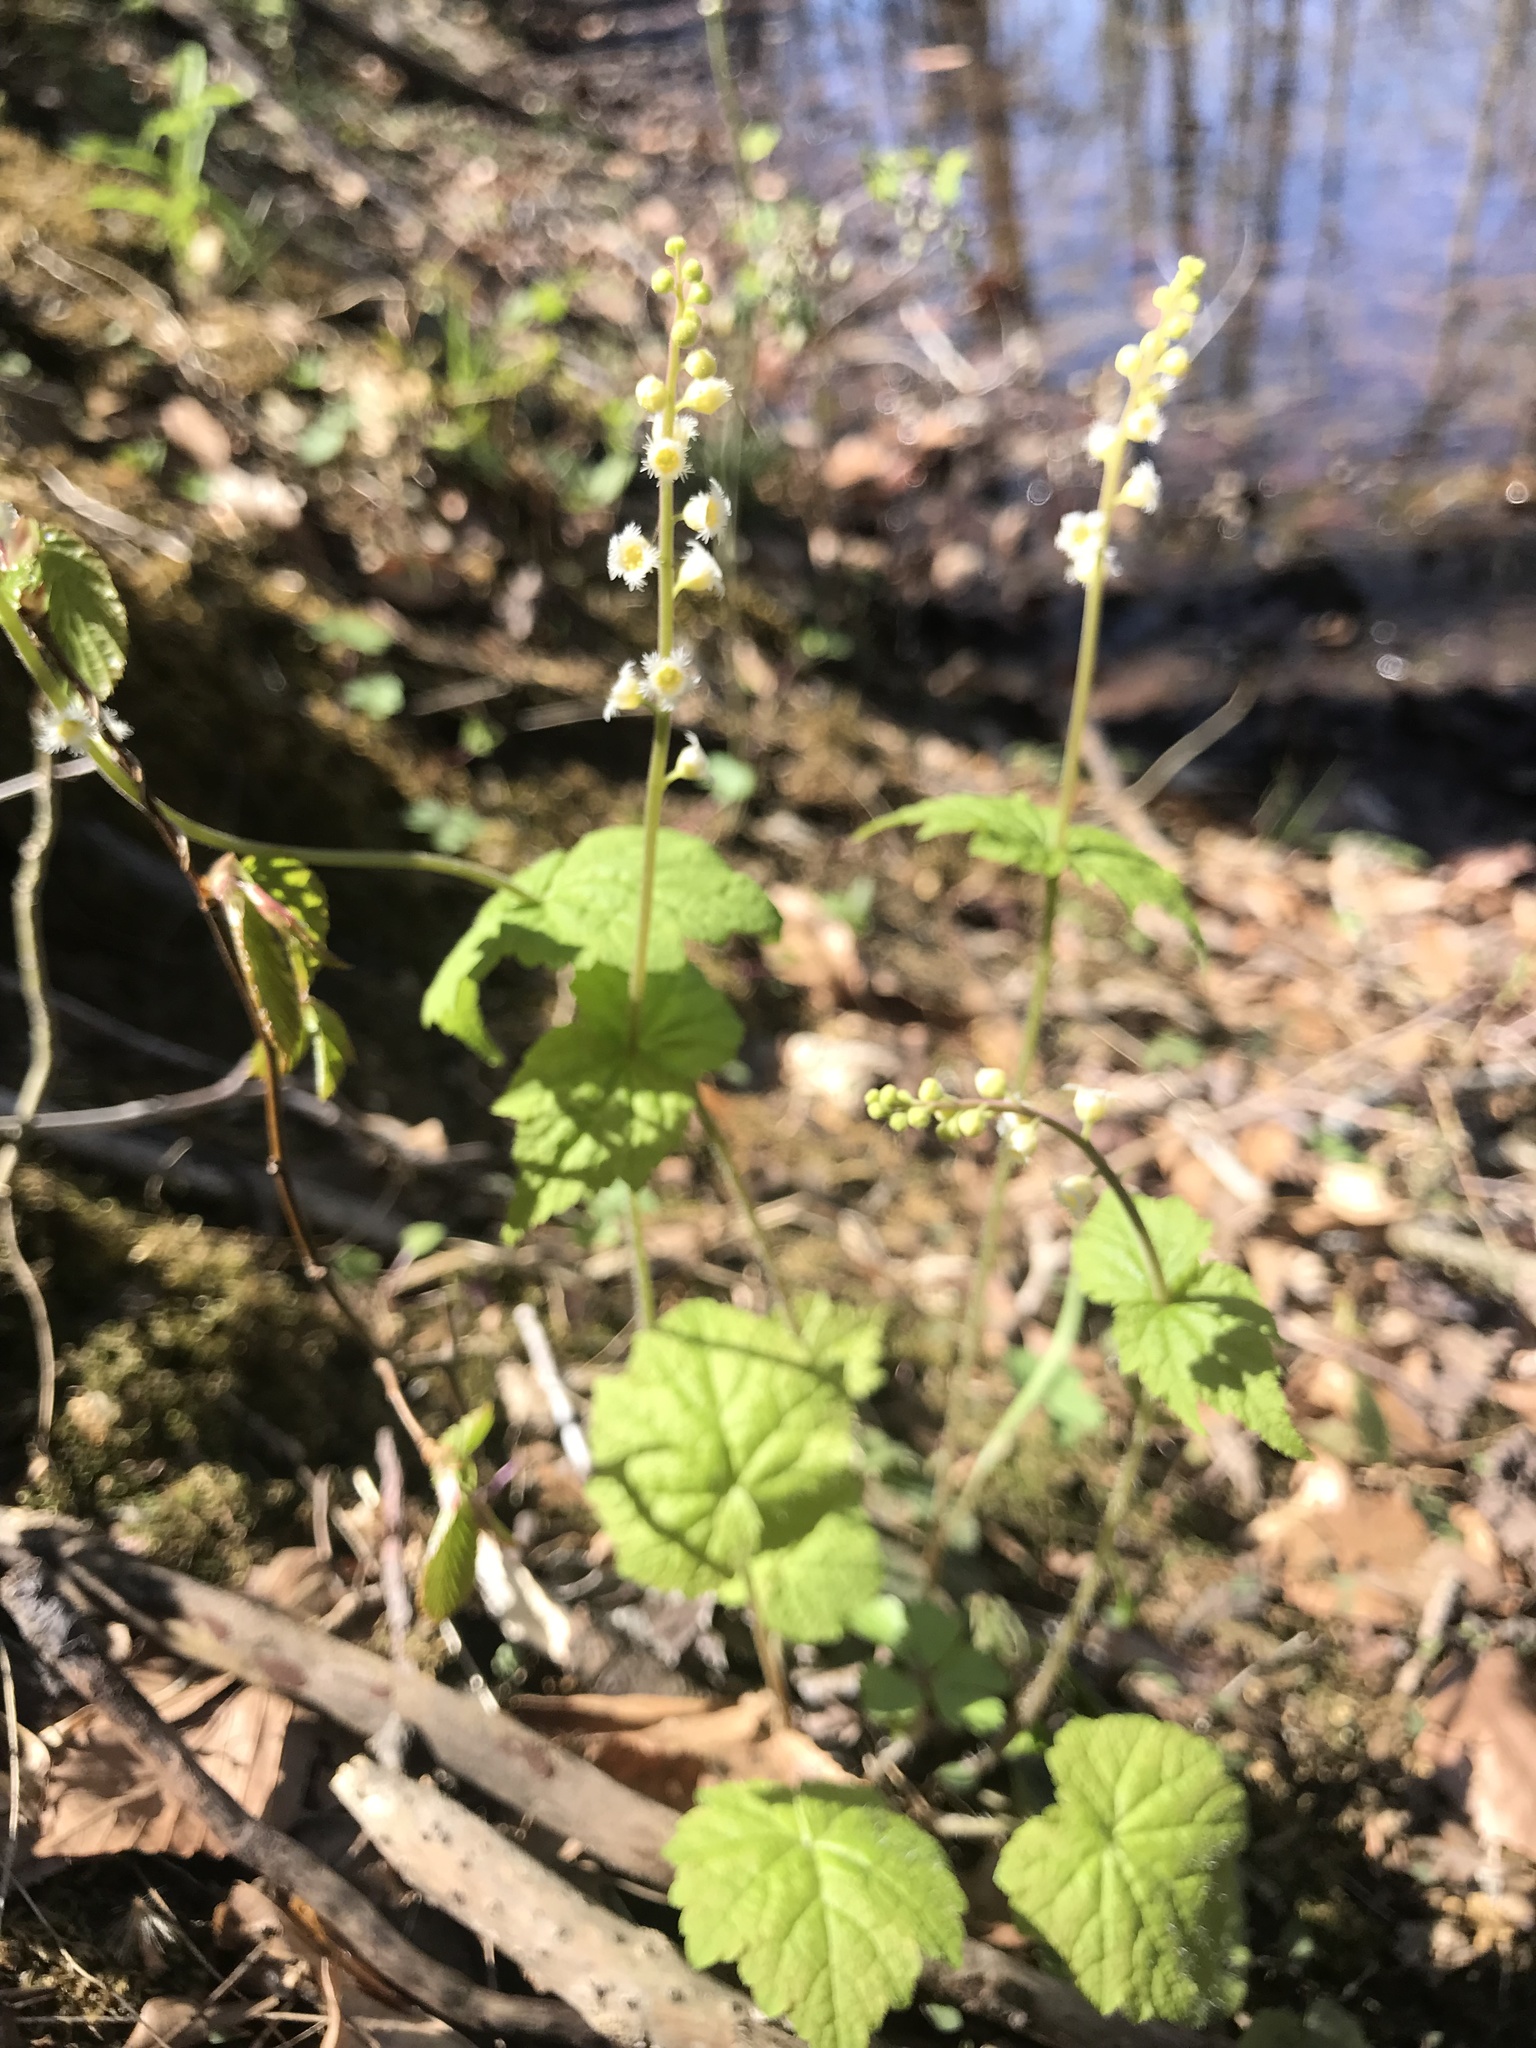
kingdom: Plantae
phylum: Tracheophyta
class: Magnoliopsida
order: Saxifragales
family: Saxifragaceae
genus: Mitella
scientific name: Mitella diphylla
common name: Coolwort
